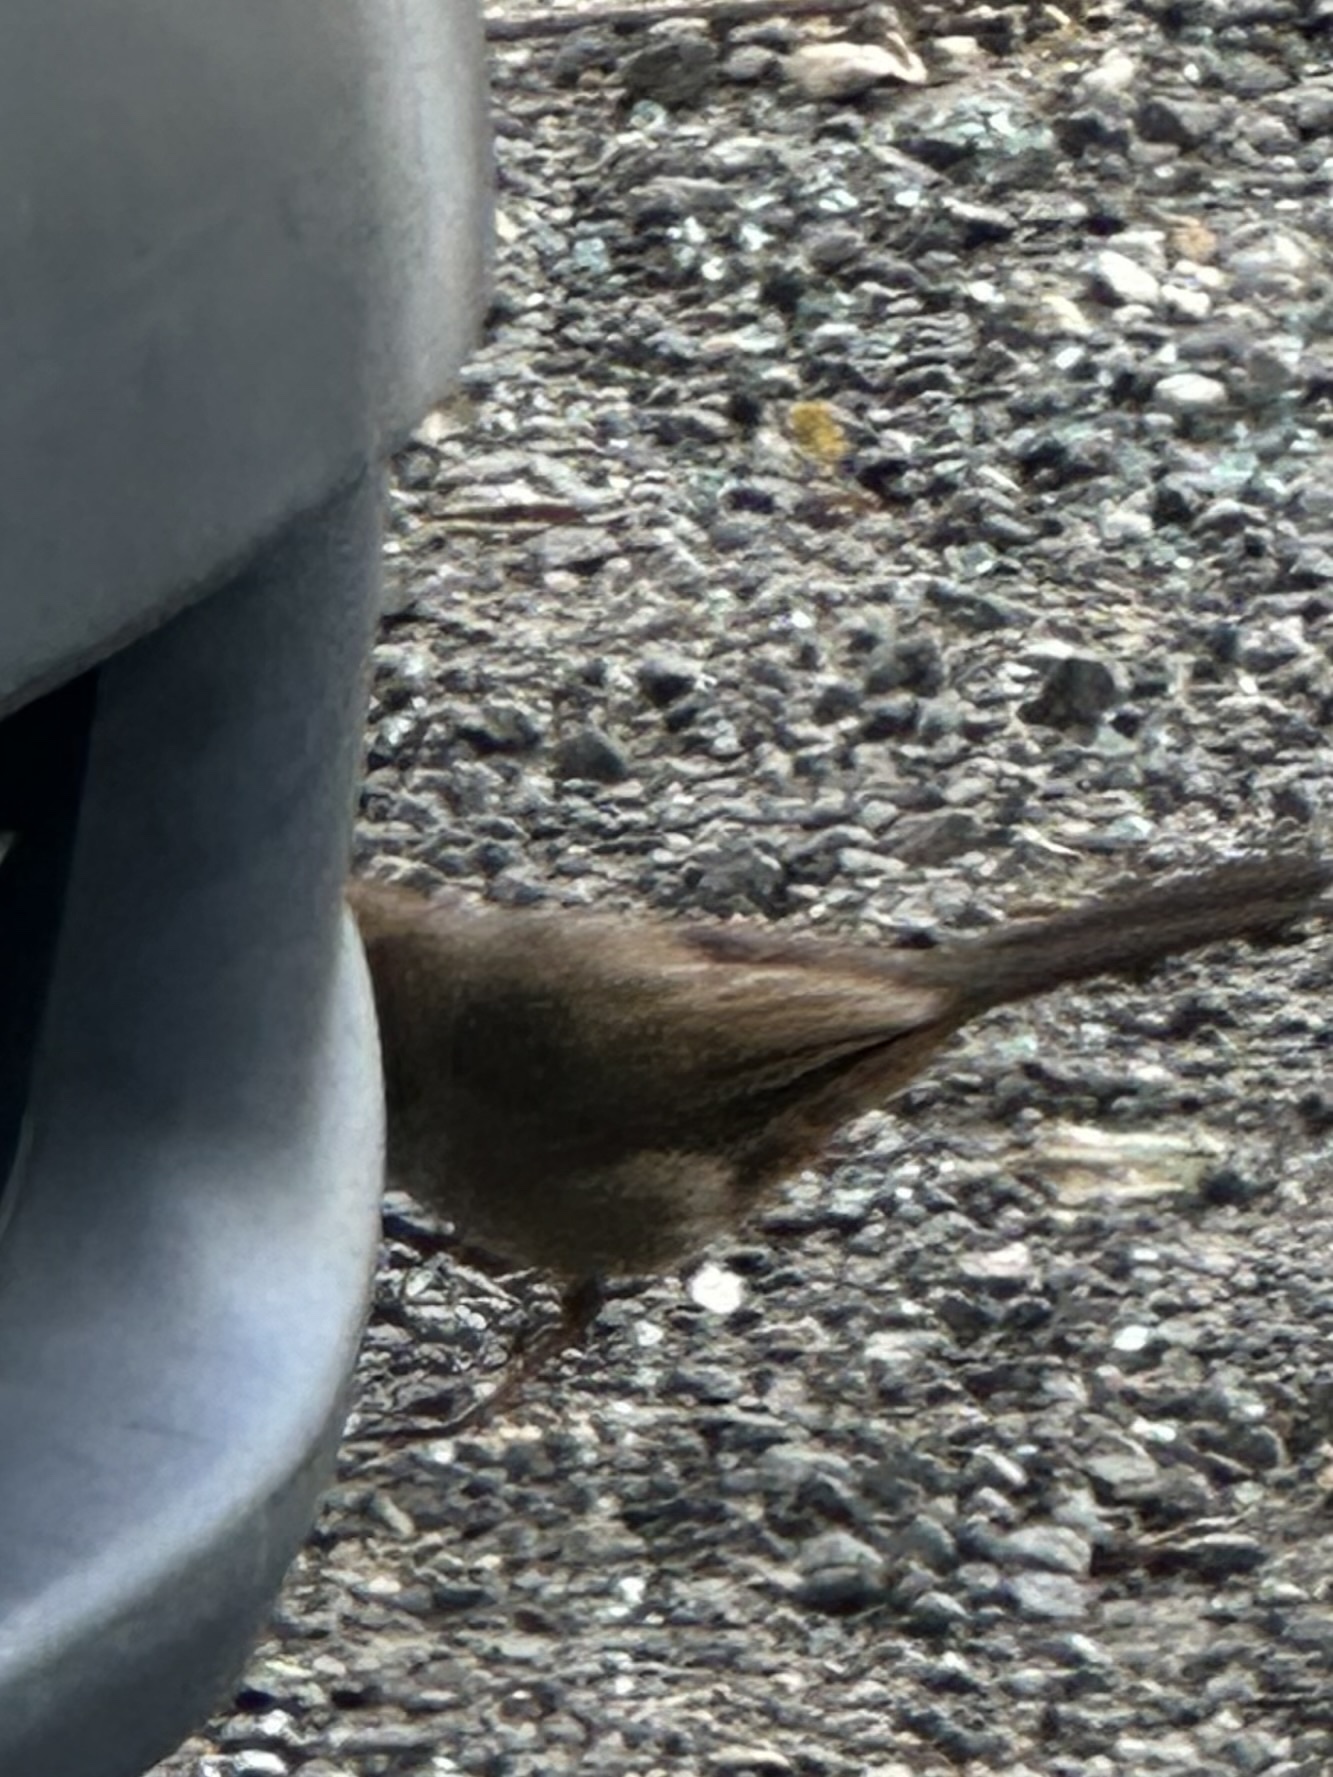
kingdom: Animalia
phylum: Chordata
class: Aves
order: Passeriformes
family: Passerellidae
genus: Melozone
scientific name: Melozone crissalis
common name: California towhee
